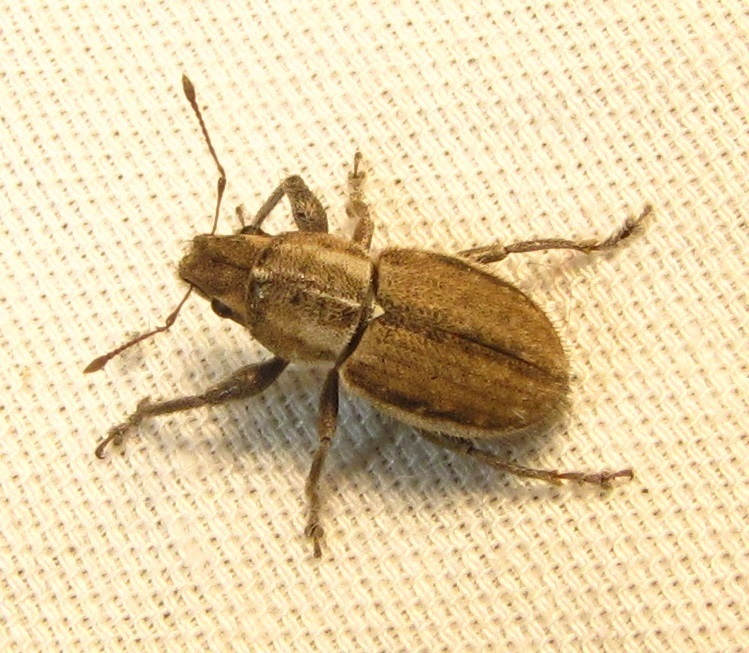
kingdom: Animalia
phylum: Arthropoda
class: Insecta
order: Coleoptera
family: Curculionidae
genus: Naupactus
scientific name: Naupactus peregrinus
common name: Whitefringed beetle
